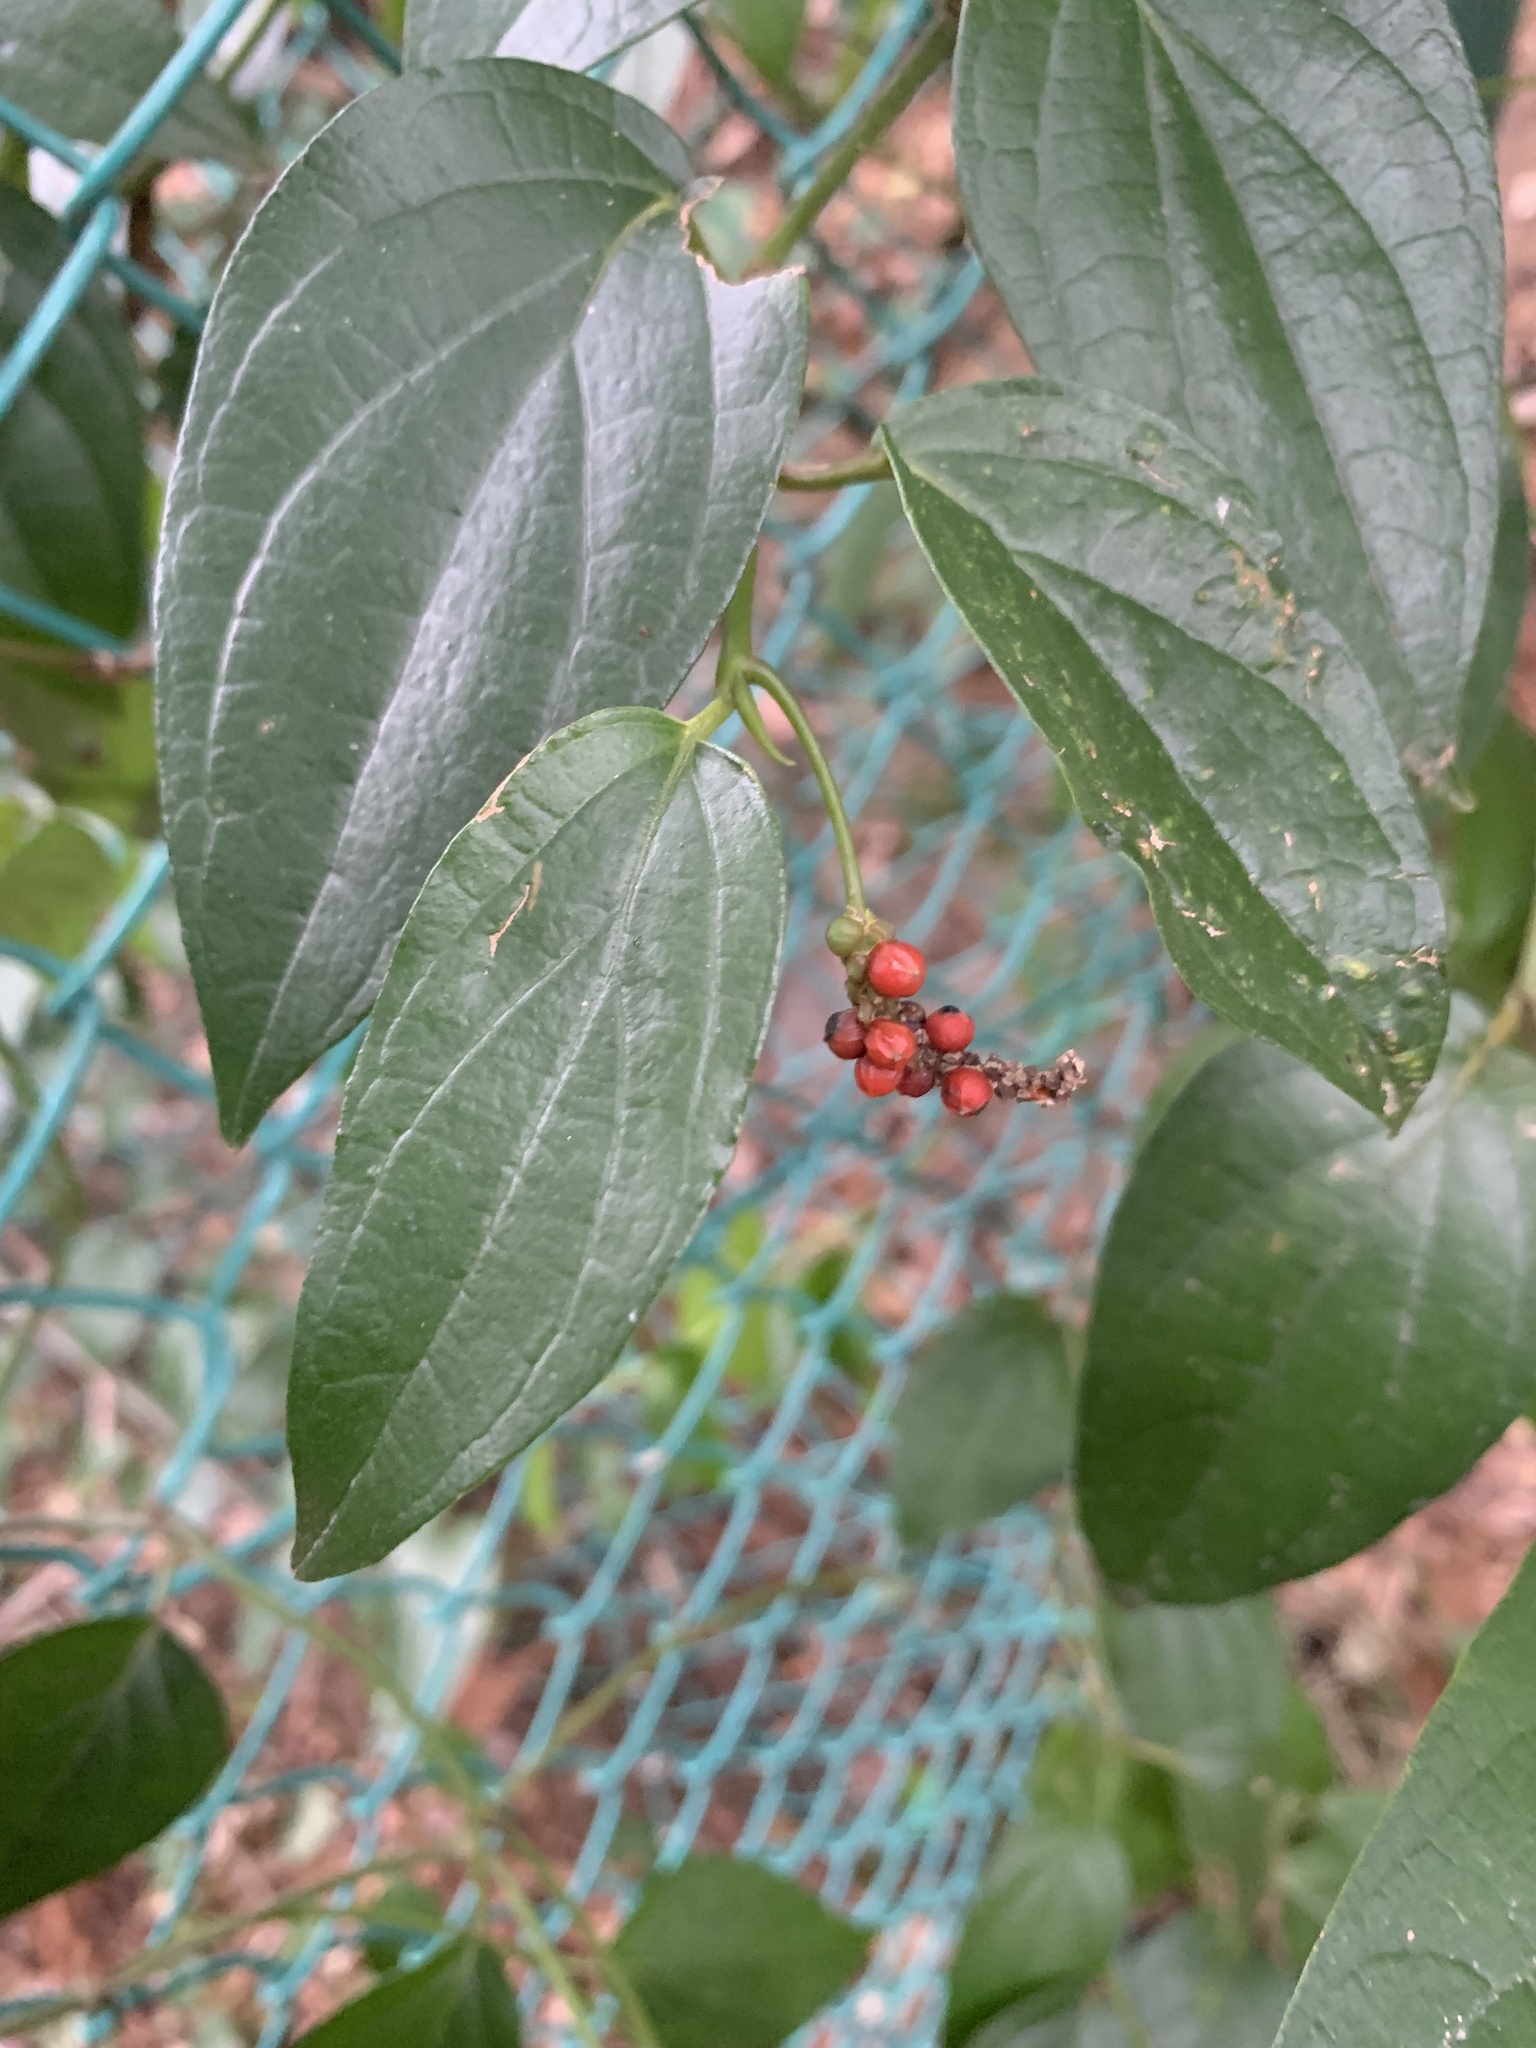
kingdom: Plantae
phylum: Tracheophyta
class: Magnoliopsida
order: Piperales
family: Piperaceae
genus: Piper
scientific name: Piper kadsura
